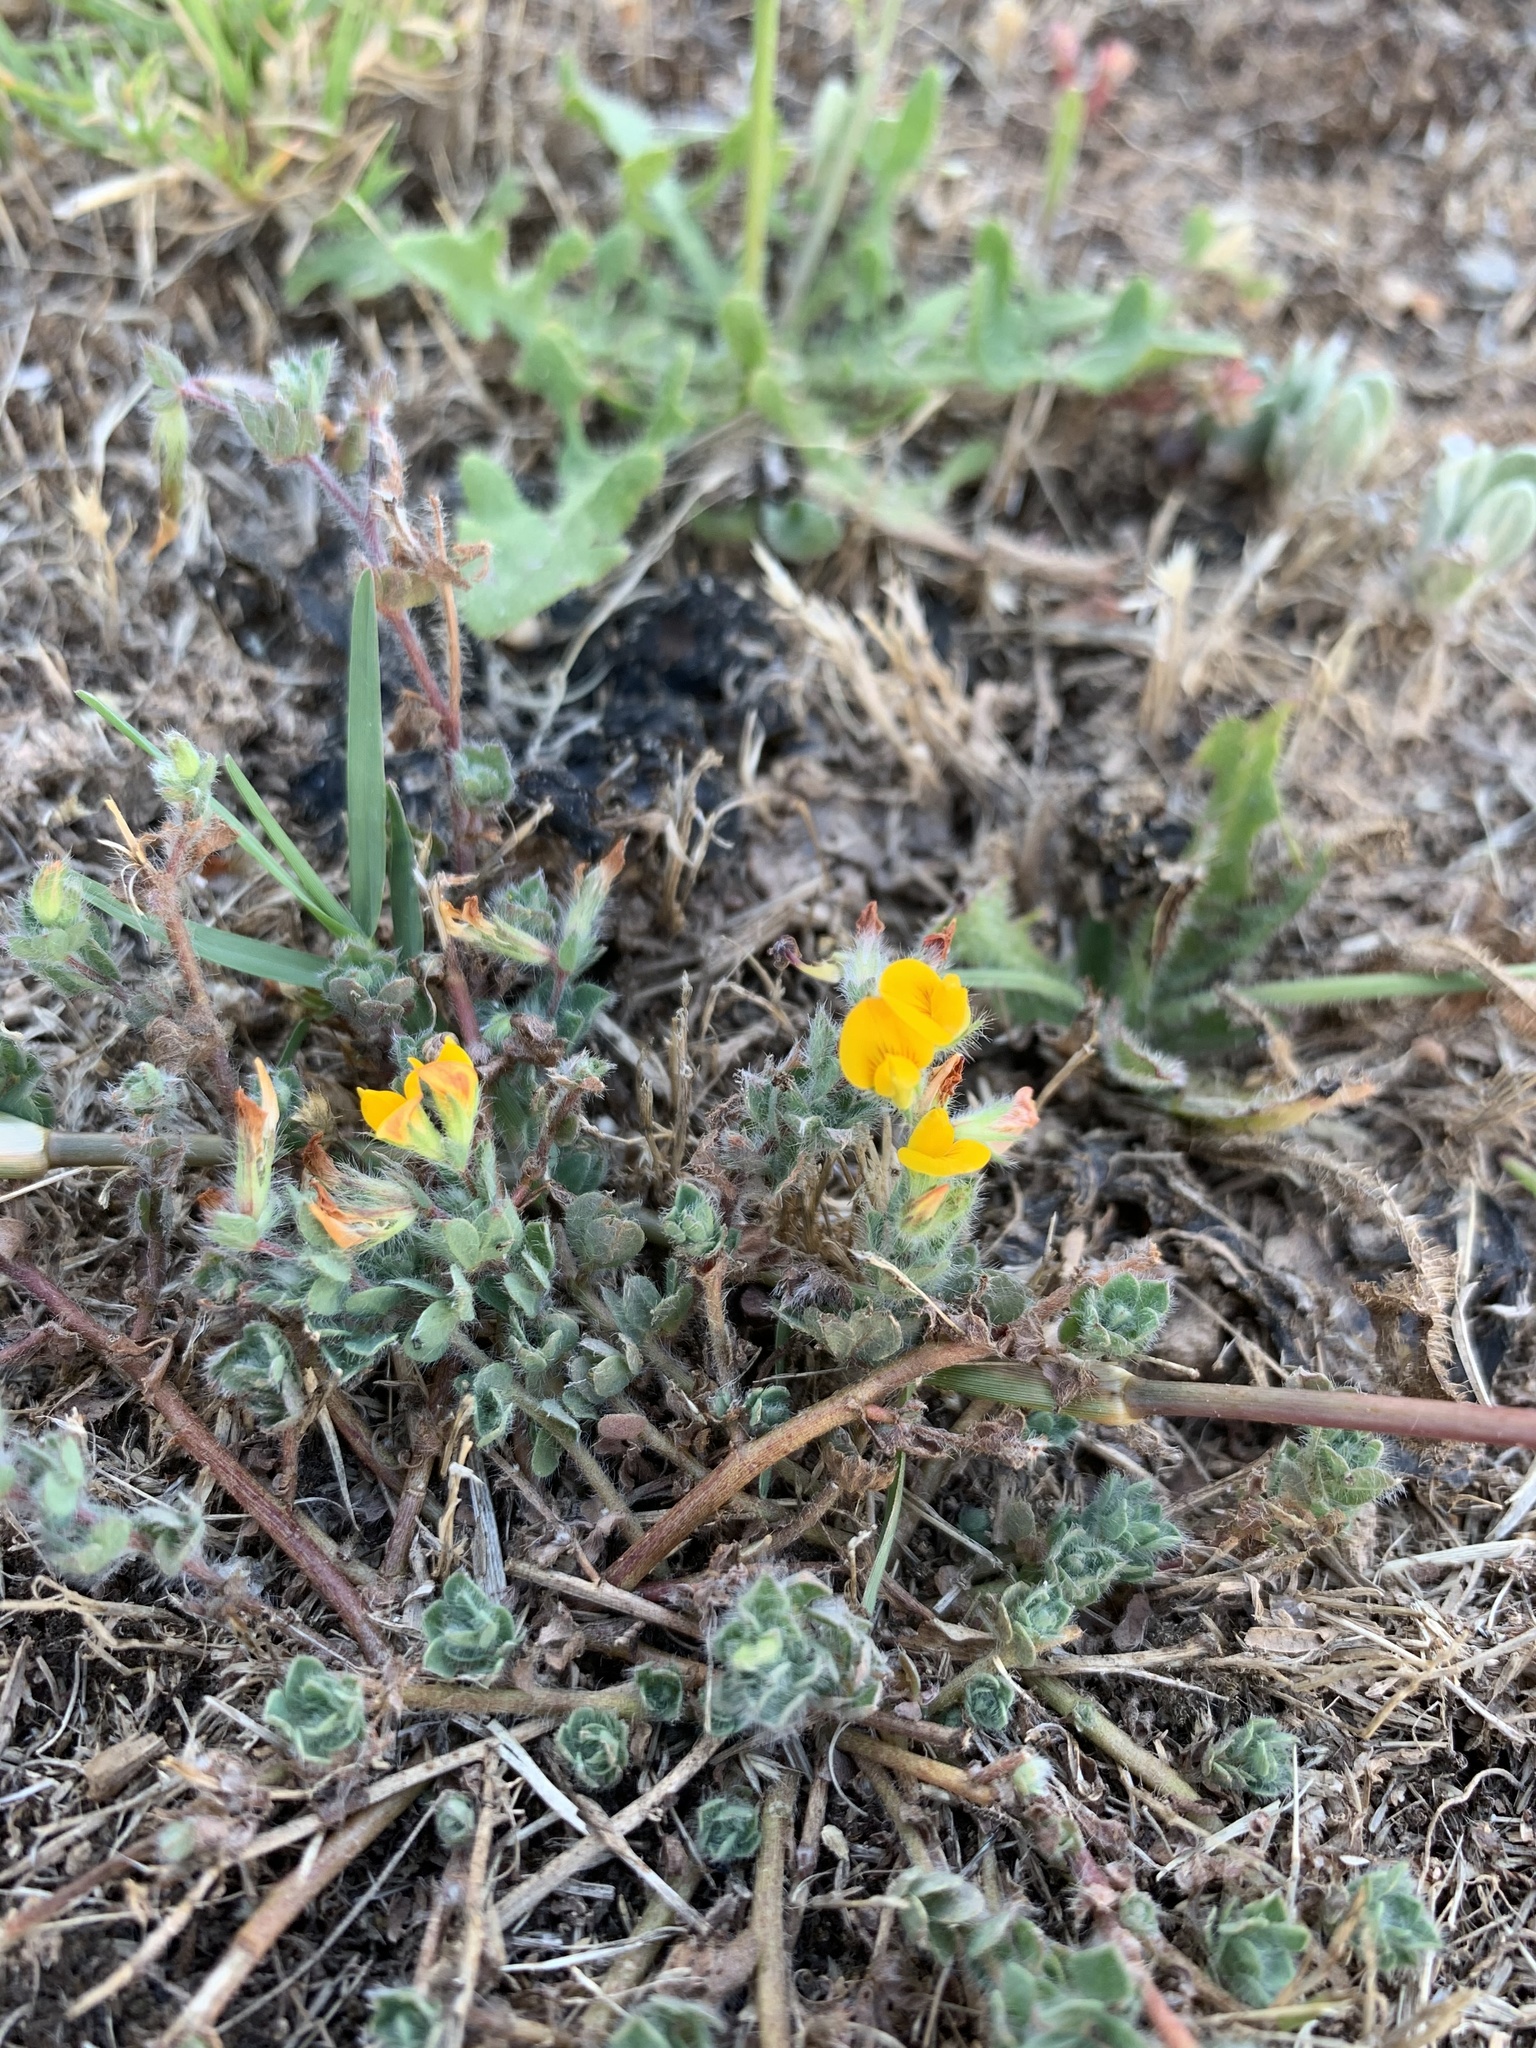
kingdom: Plantae
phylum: Tracheophyta
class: Magnoliopsida
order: Fabales
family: Fabaceae
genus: Lotus
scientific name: Lotus subbiflorus
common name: Hairy bird's-foot trefoil
